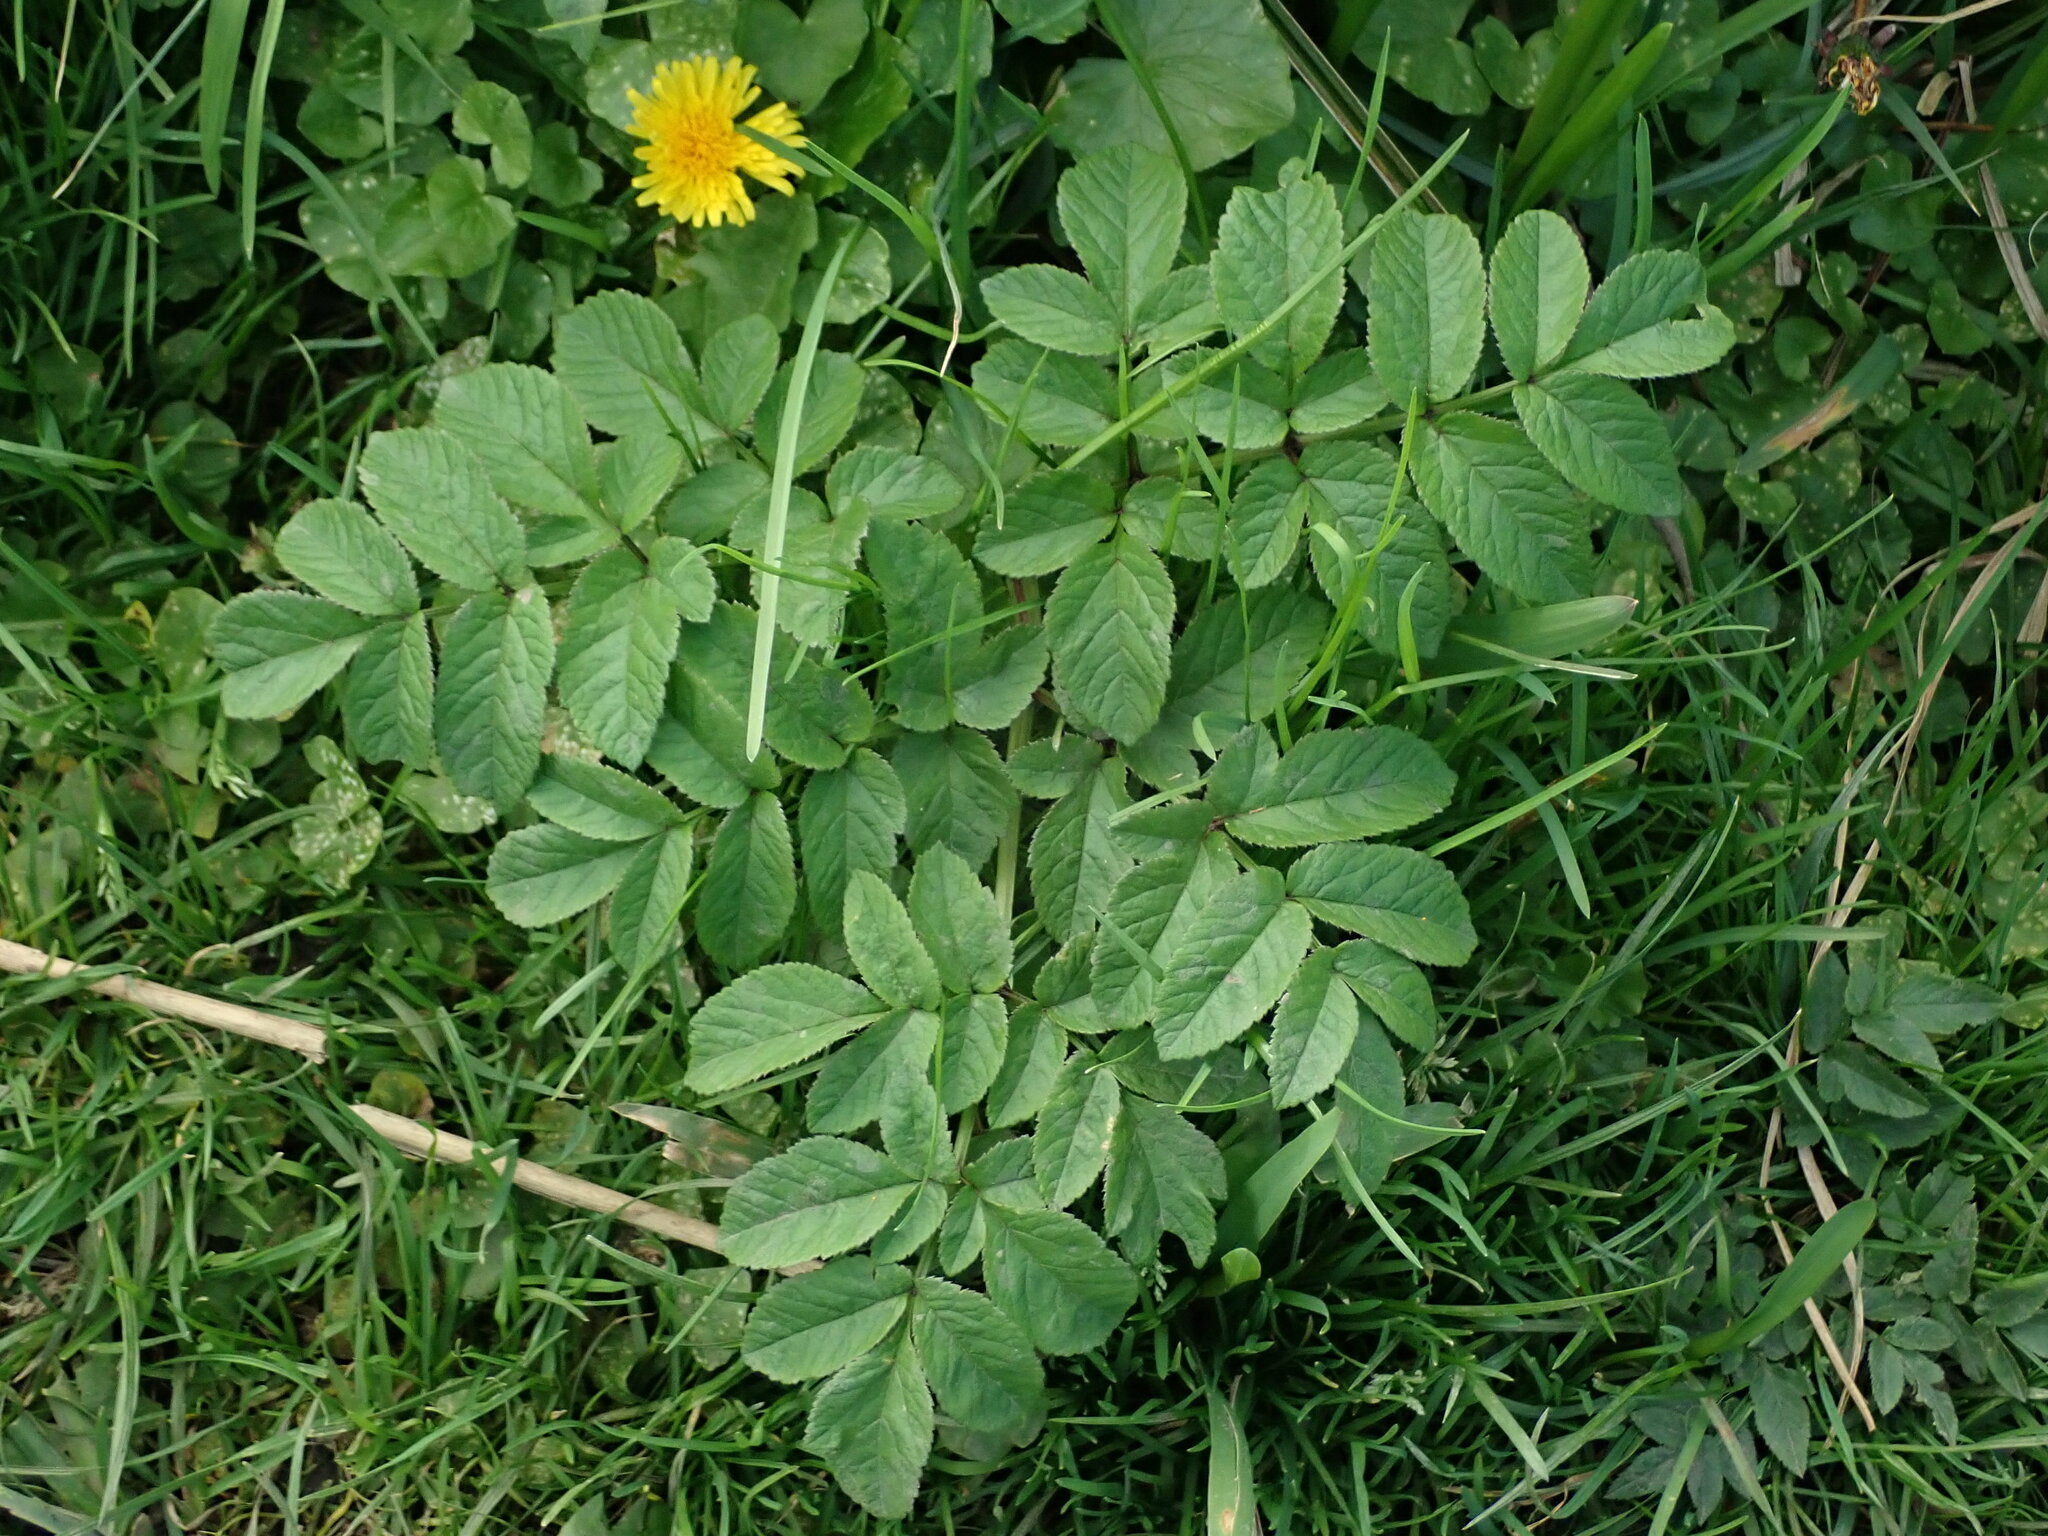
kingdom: Plantae
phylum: Tracheophyta
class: Magnoliopsida
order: Apiales
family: Apiaceae
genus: Angelica
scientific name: Angelica sylvestris
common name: Wild angelica
